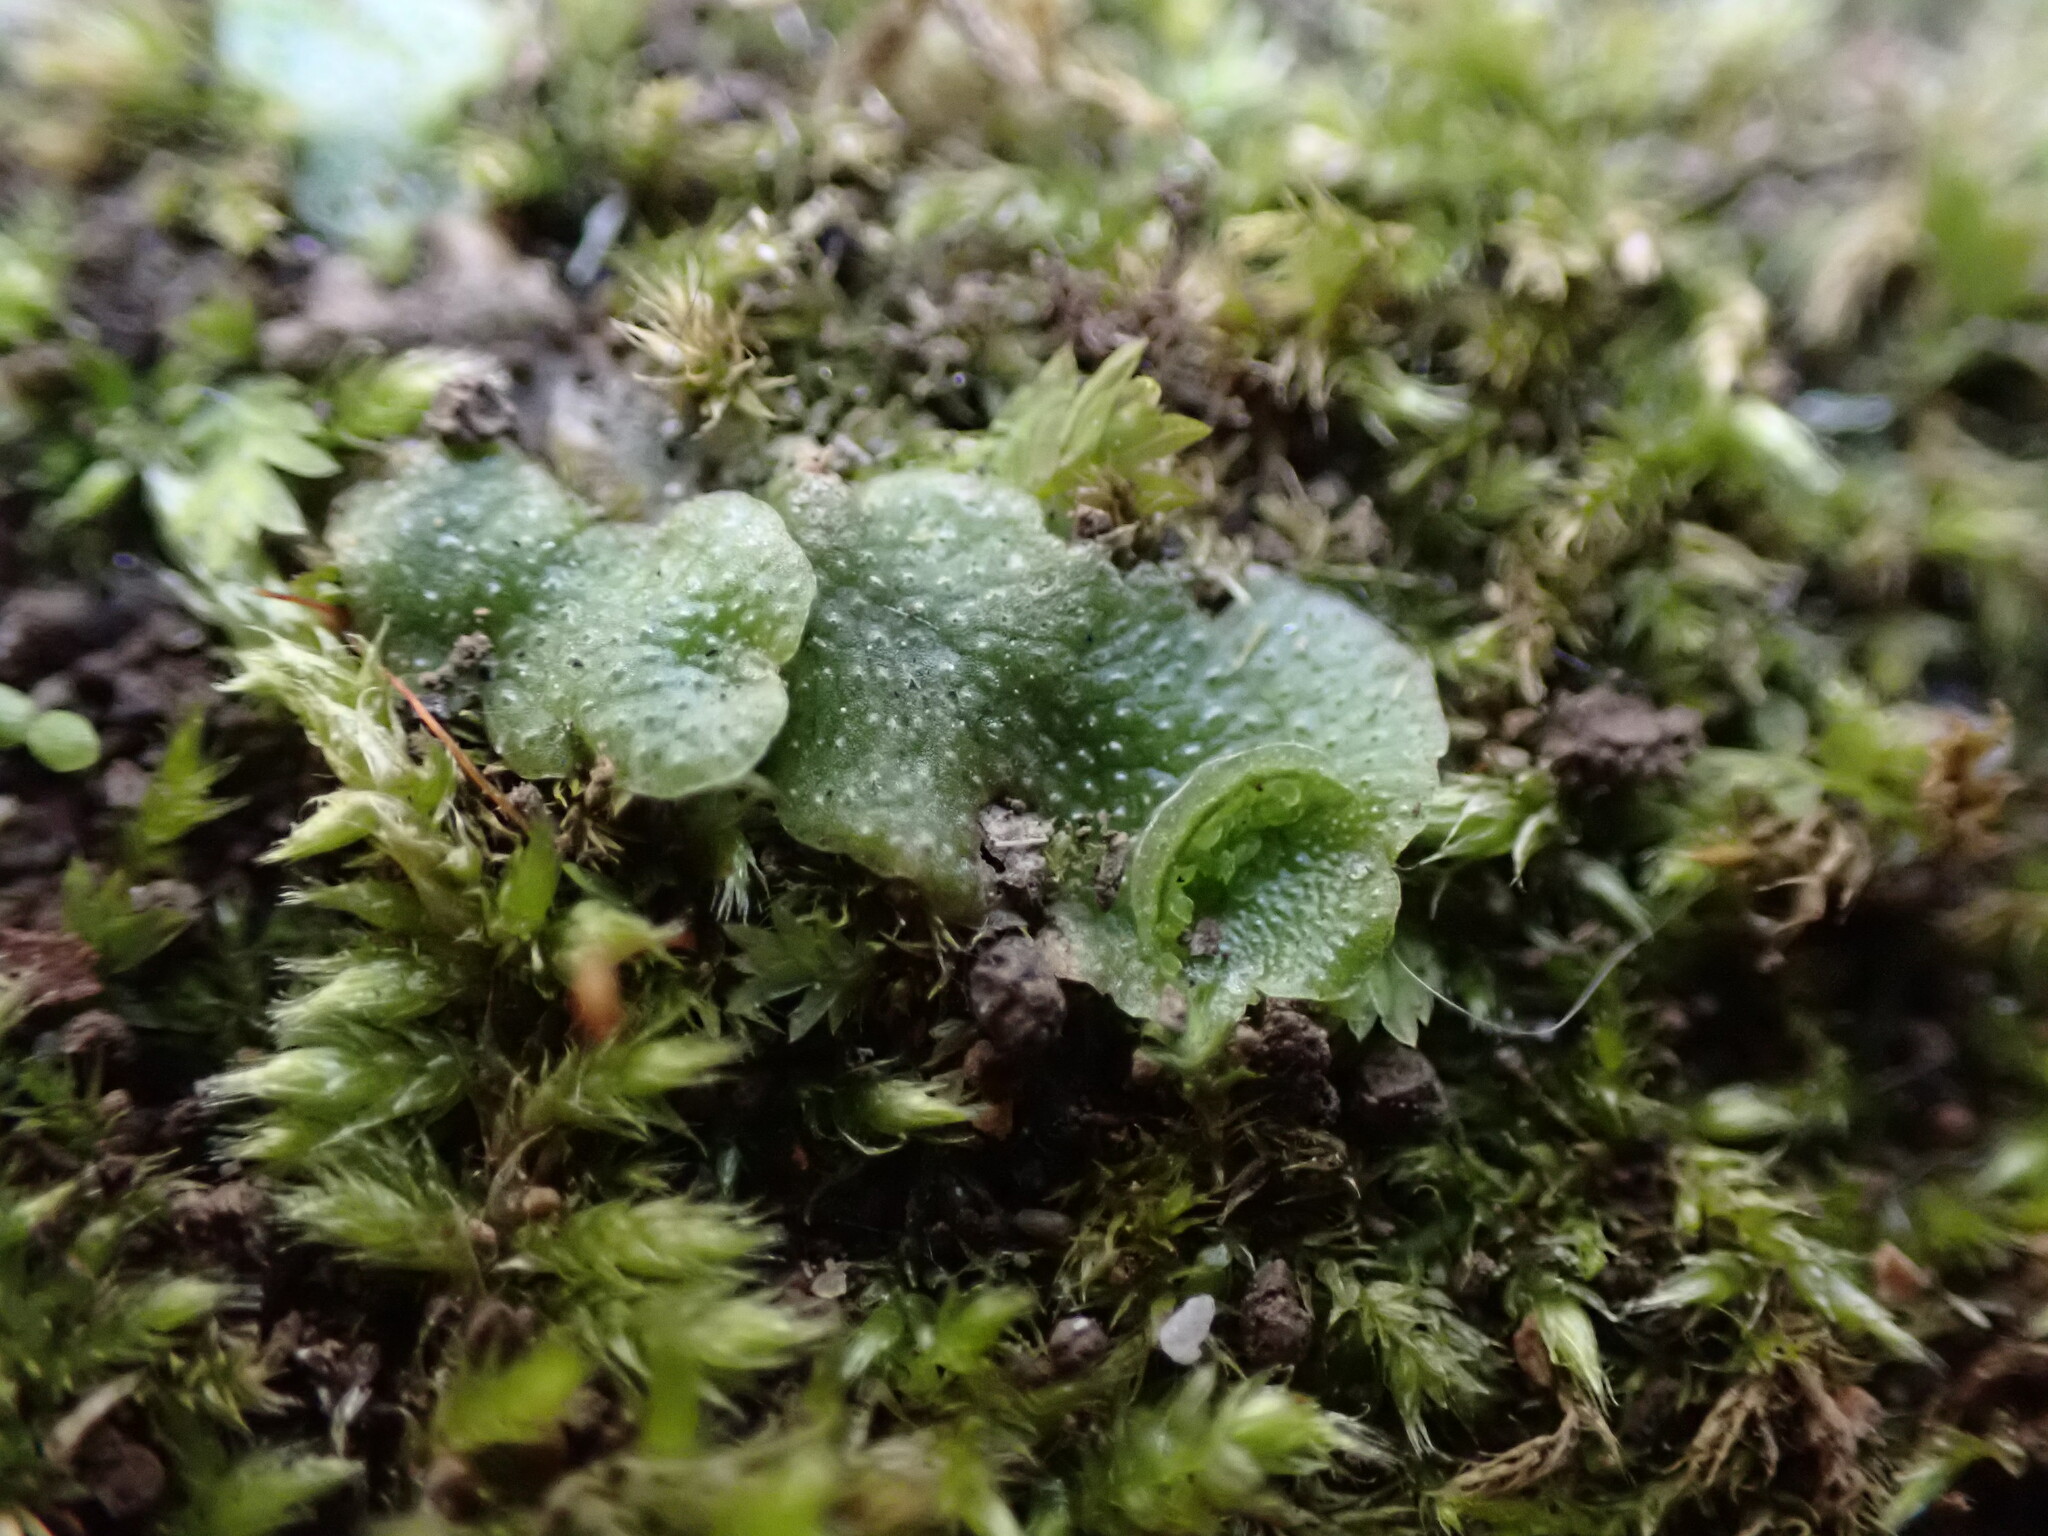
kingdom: Plantae
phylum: Marchantiophyta
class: Marchantiopsida
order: Lunulariales
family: Lunulariaceae
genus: Lunularia
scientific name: Lunularia cruciata
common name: Crescent-cup liverwort
